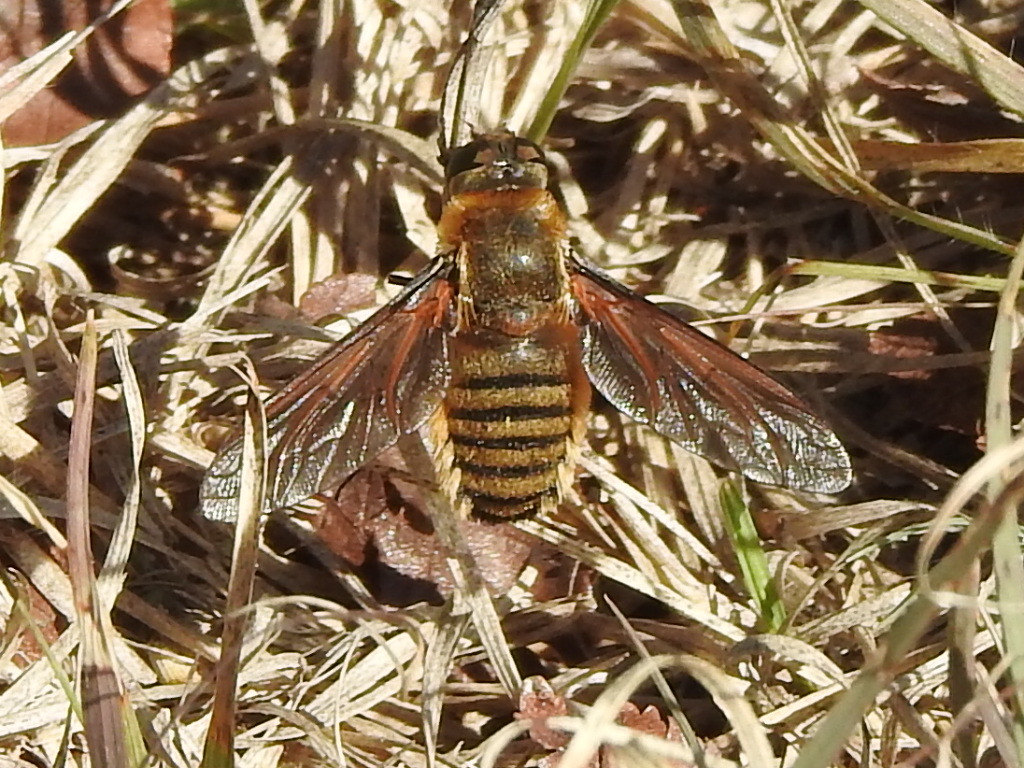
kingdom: Animalia
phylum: Arthropoda
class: Insecta
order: Diptera
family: Bombyliidae
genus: Poecilanthrax
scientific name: Poecilanthrax lucifer
